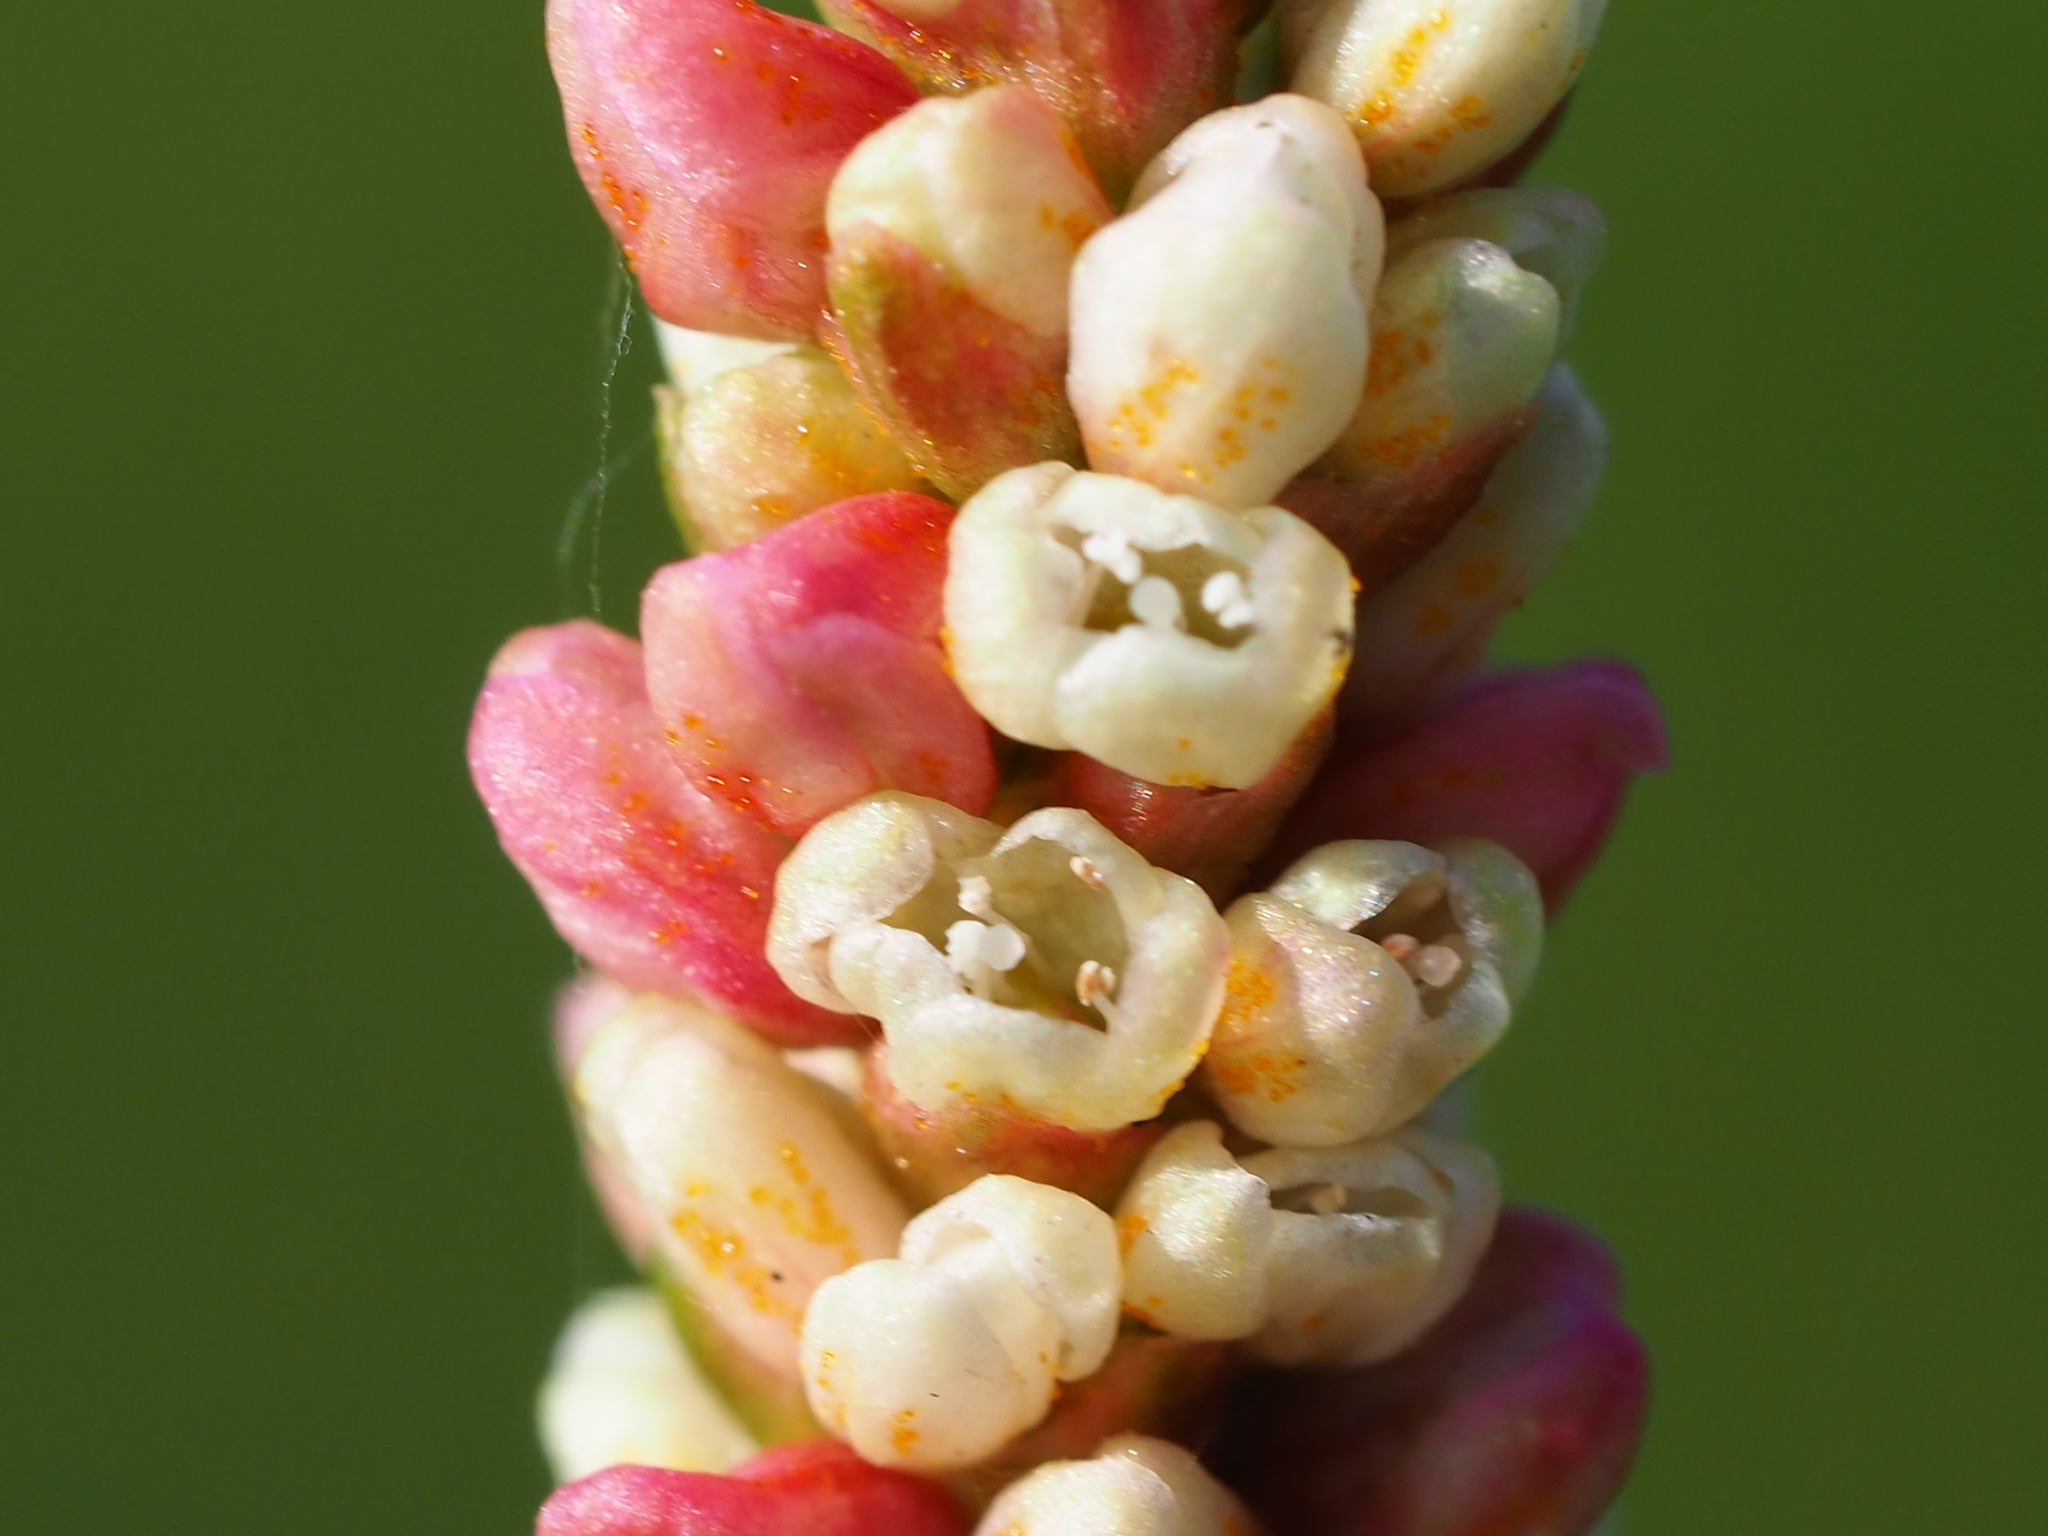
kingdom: Plantae
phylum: Tracheophyta
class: Magnoliopsida
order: Caryophyllales
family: Polygonaceae
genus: Persicaria
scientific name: Persicaria maculosa
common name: Redshank
